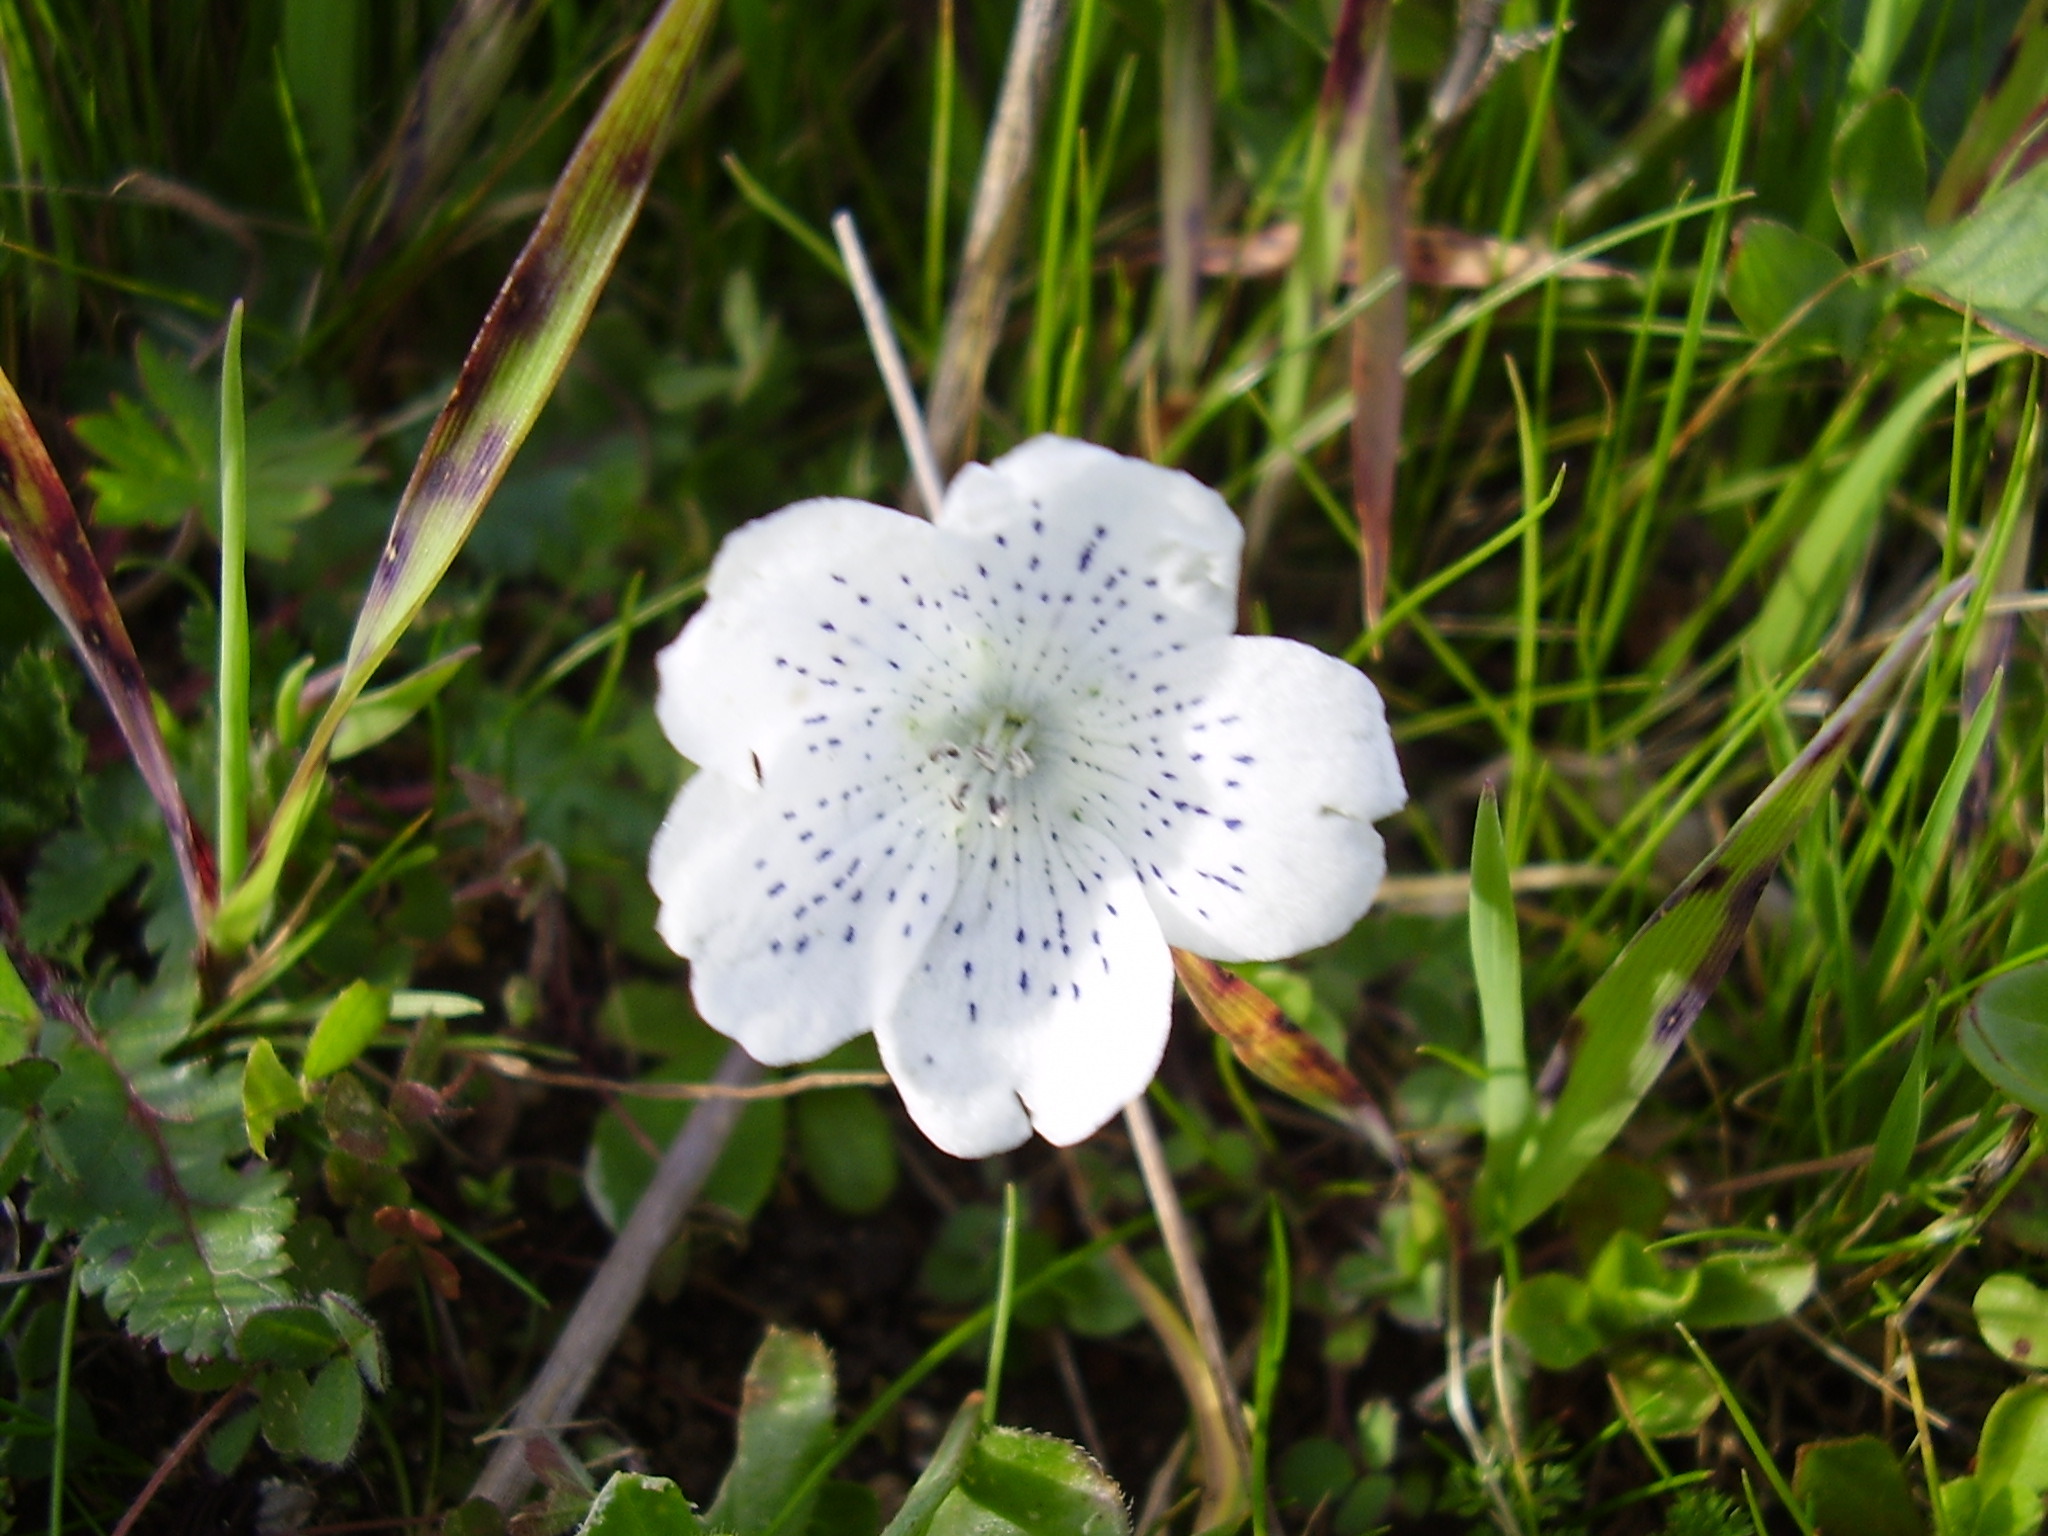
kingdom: Plantae
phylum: Tracheophyta
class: Magnoliopsida
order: Boraginales
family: Hydrophyllaceae
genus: Nemophila
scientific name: Nemophila menziesii
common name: Baby's-blue-eyes
